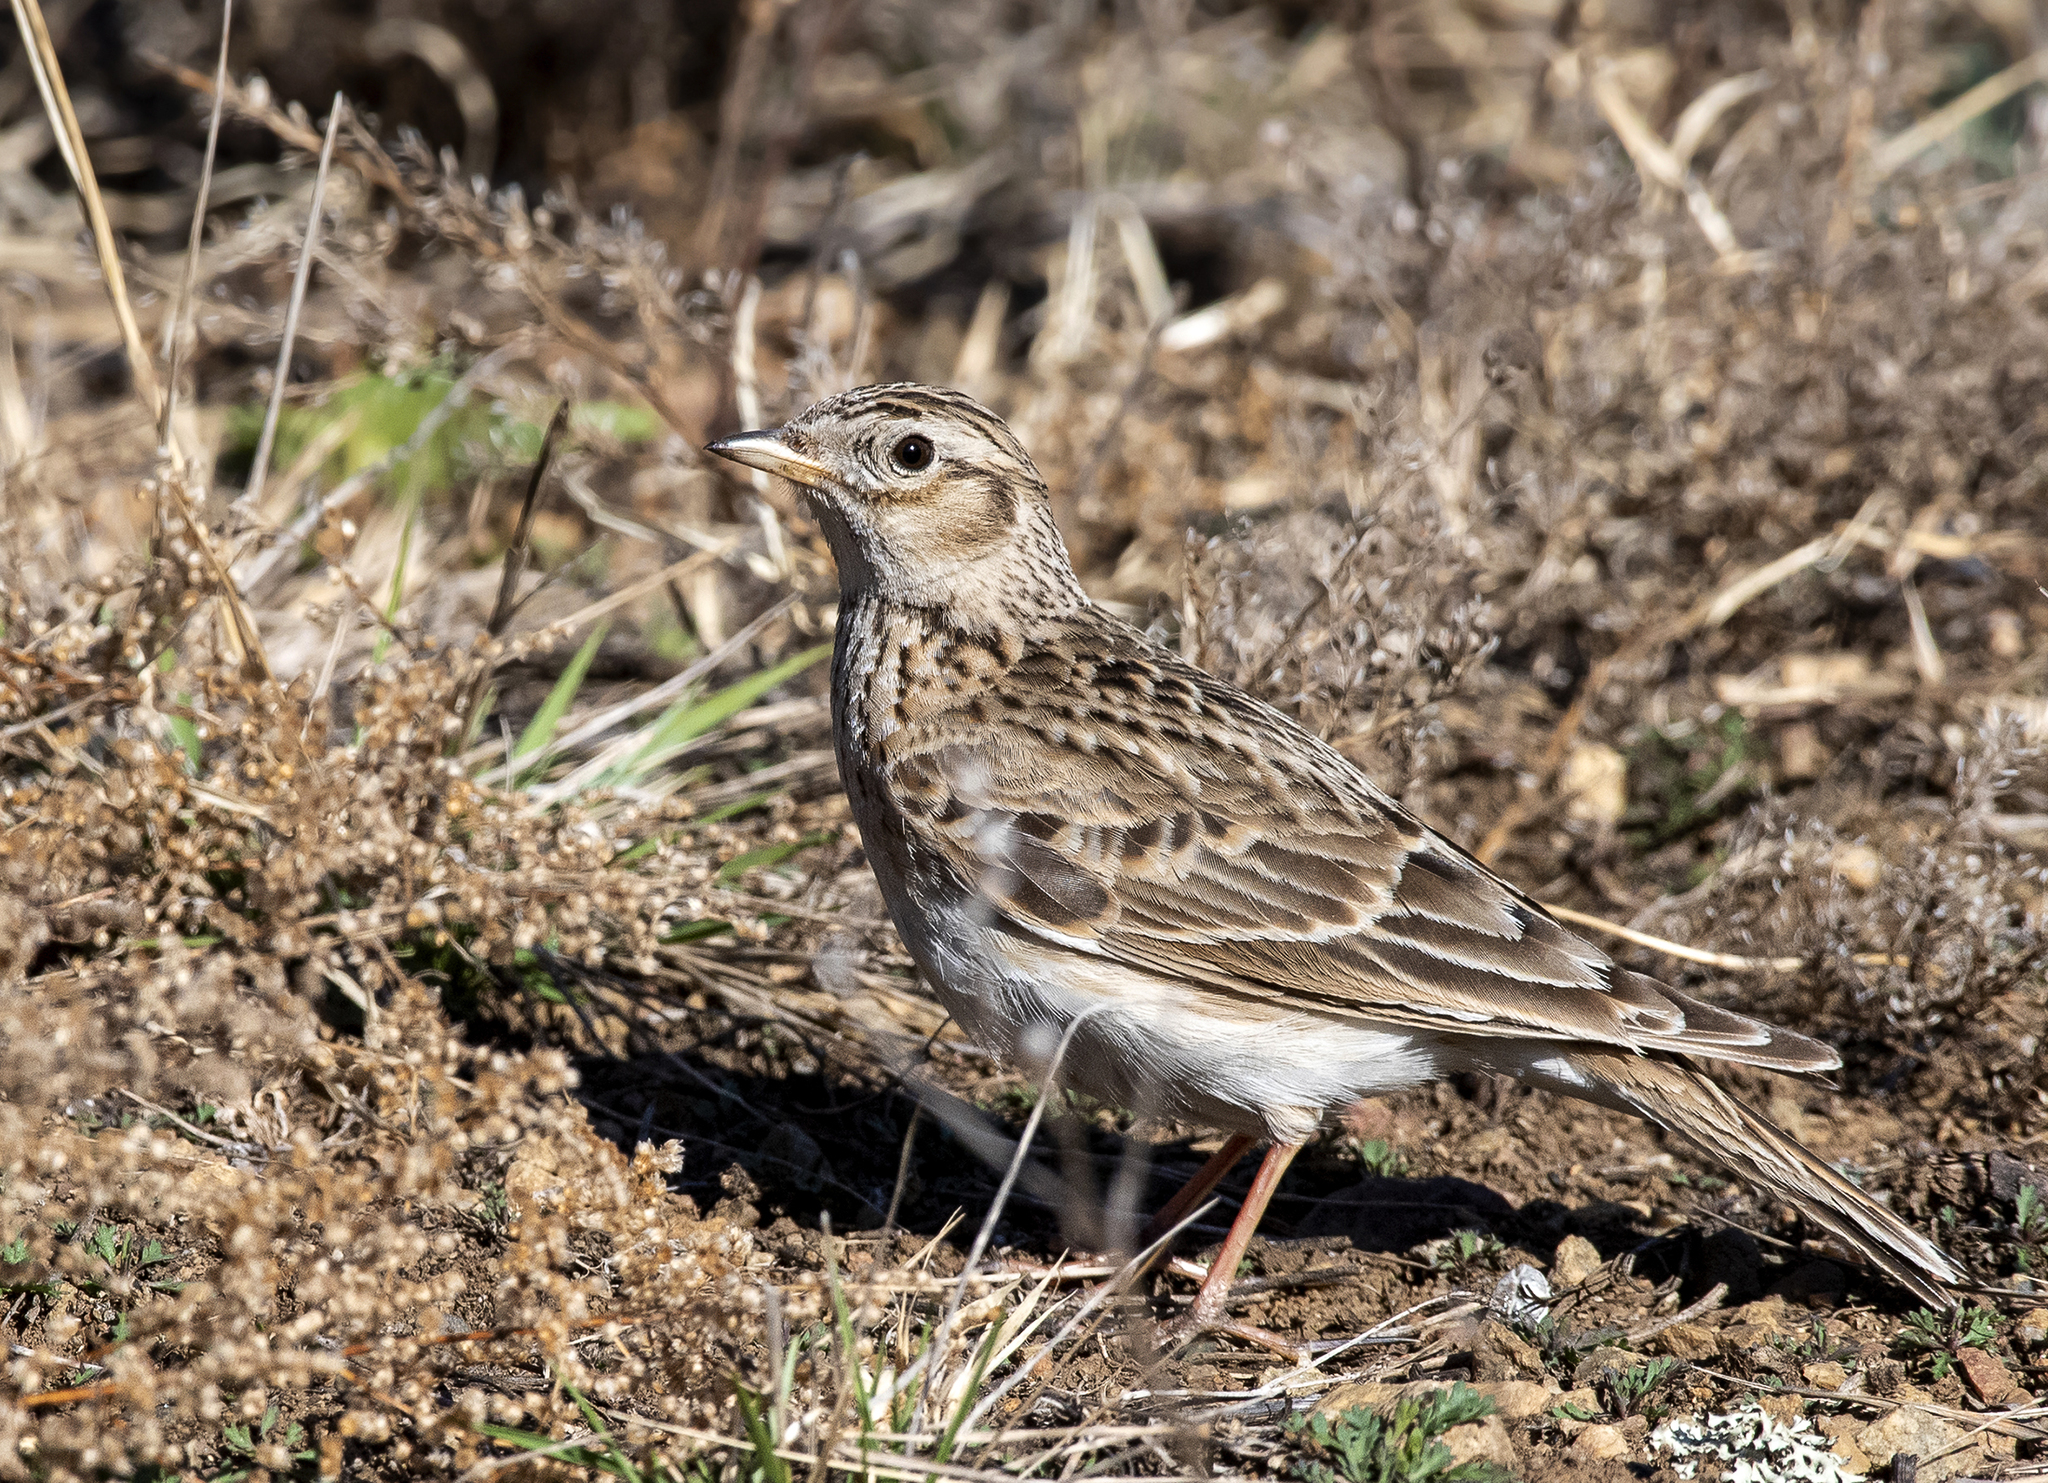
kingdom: Animalia
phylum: Chordata
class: Aves
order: Passeriformes
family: Alaudidae
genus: Alauda
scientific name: Alauda arvensis
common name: Eurasian skylark
